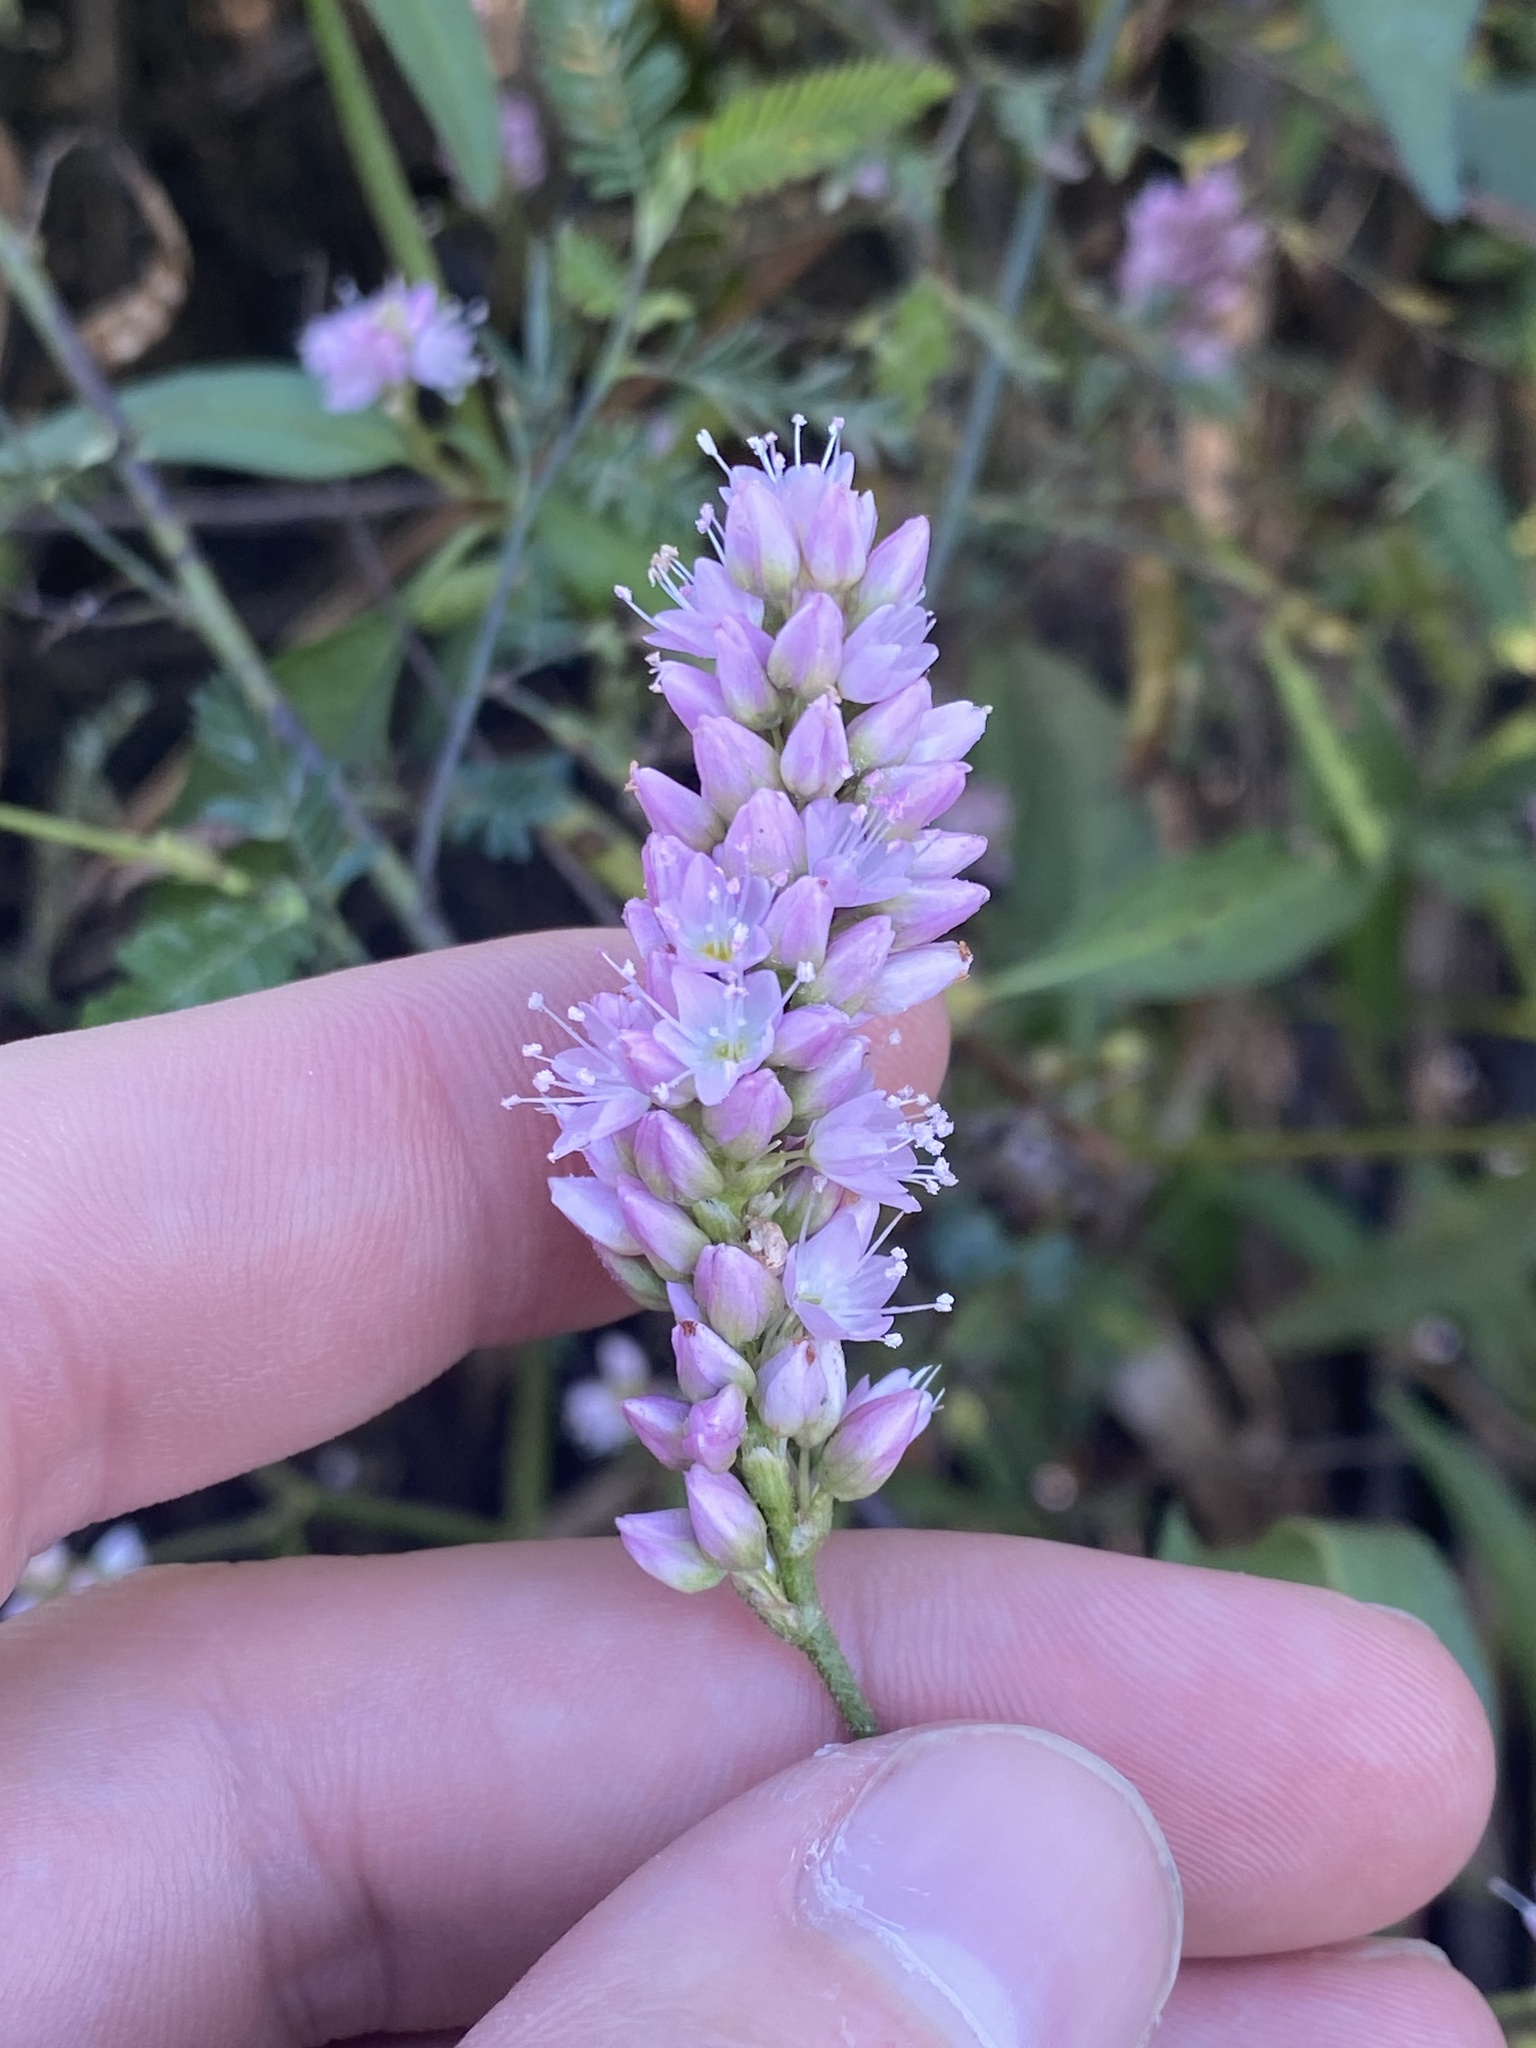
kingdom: Plantae
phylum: Tracheophyta
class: Magnoliopsida
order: Caryophyllales
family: Polygonaceae
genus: Persicaria
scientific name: Persicaria bicornis
